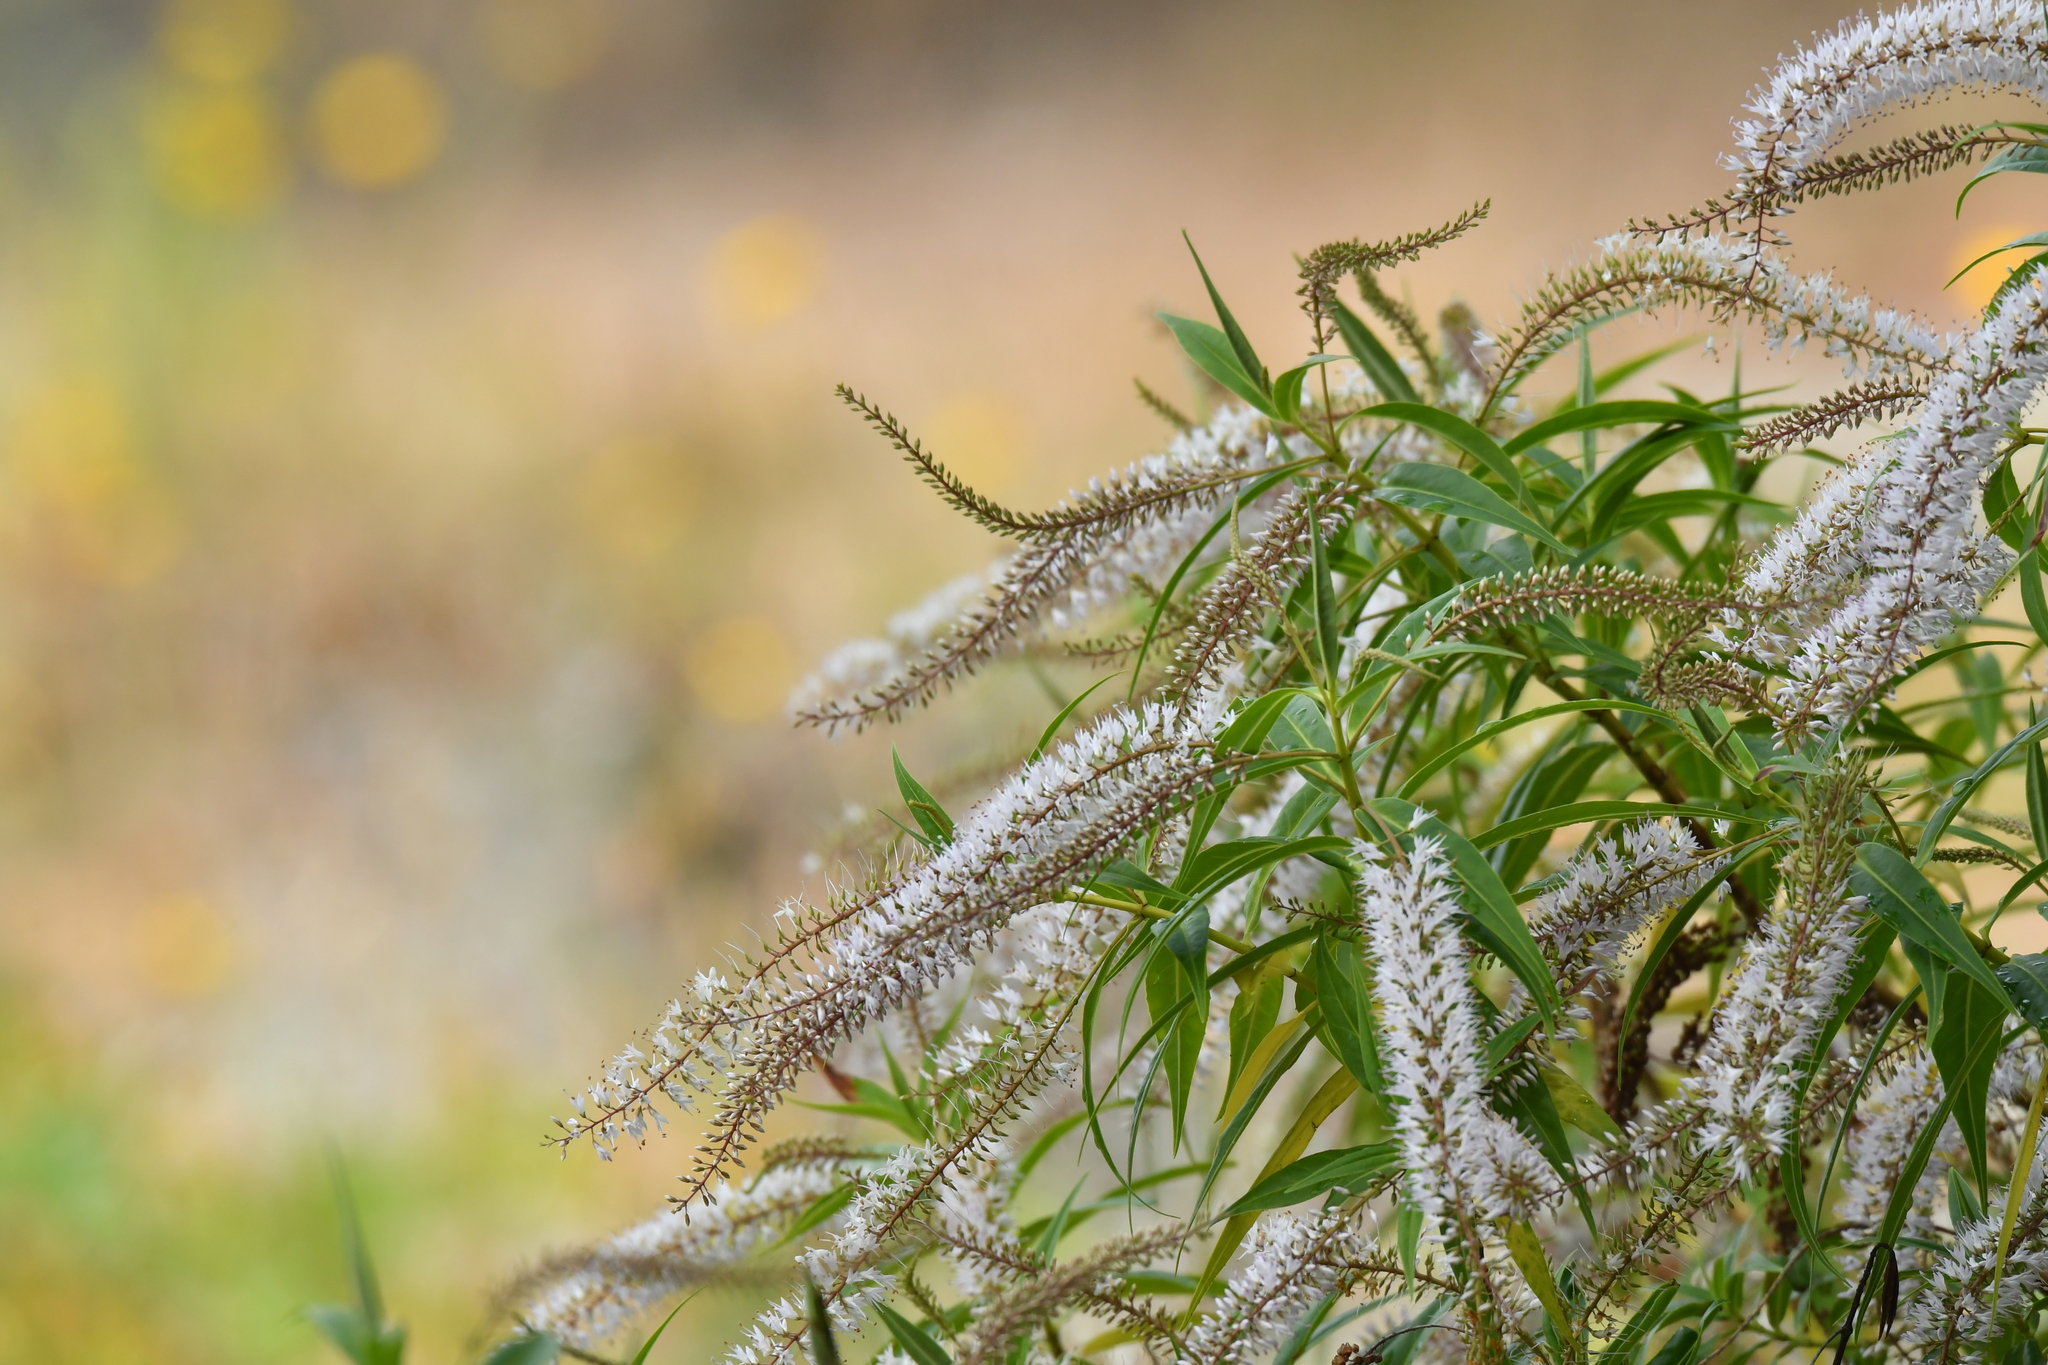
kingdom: Plantae
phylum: Tracheophyta
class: Magnoliopsida
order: Lamiales
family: Plantaginaceae
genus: Veronica
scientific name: Veronica salicifolia
